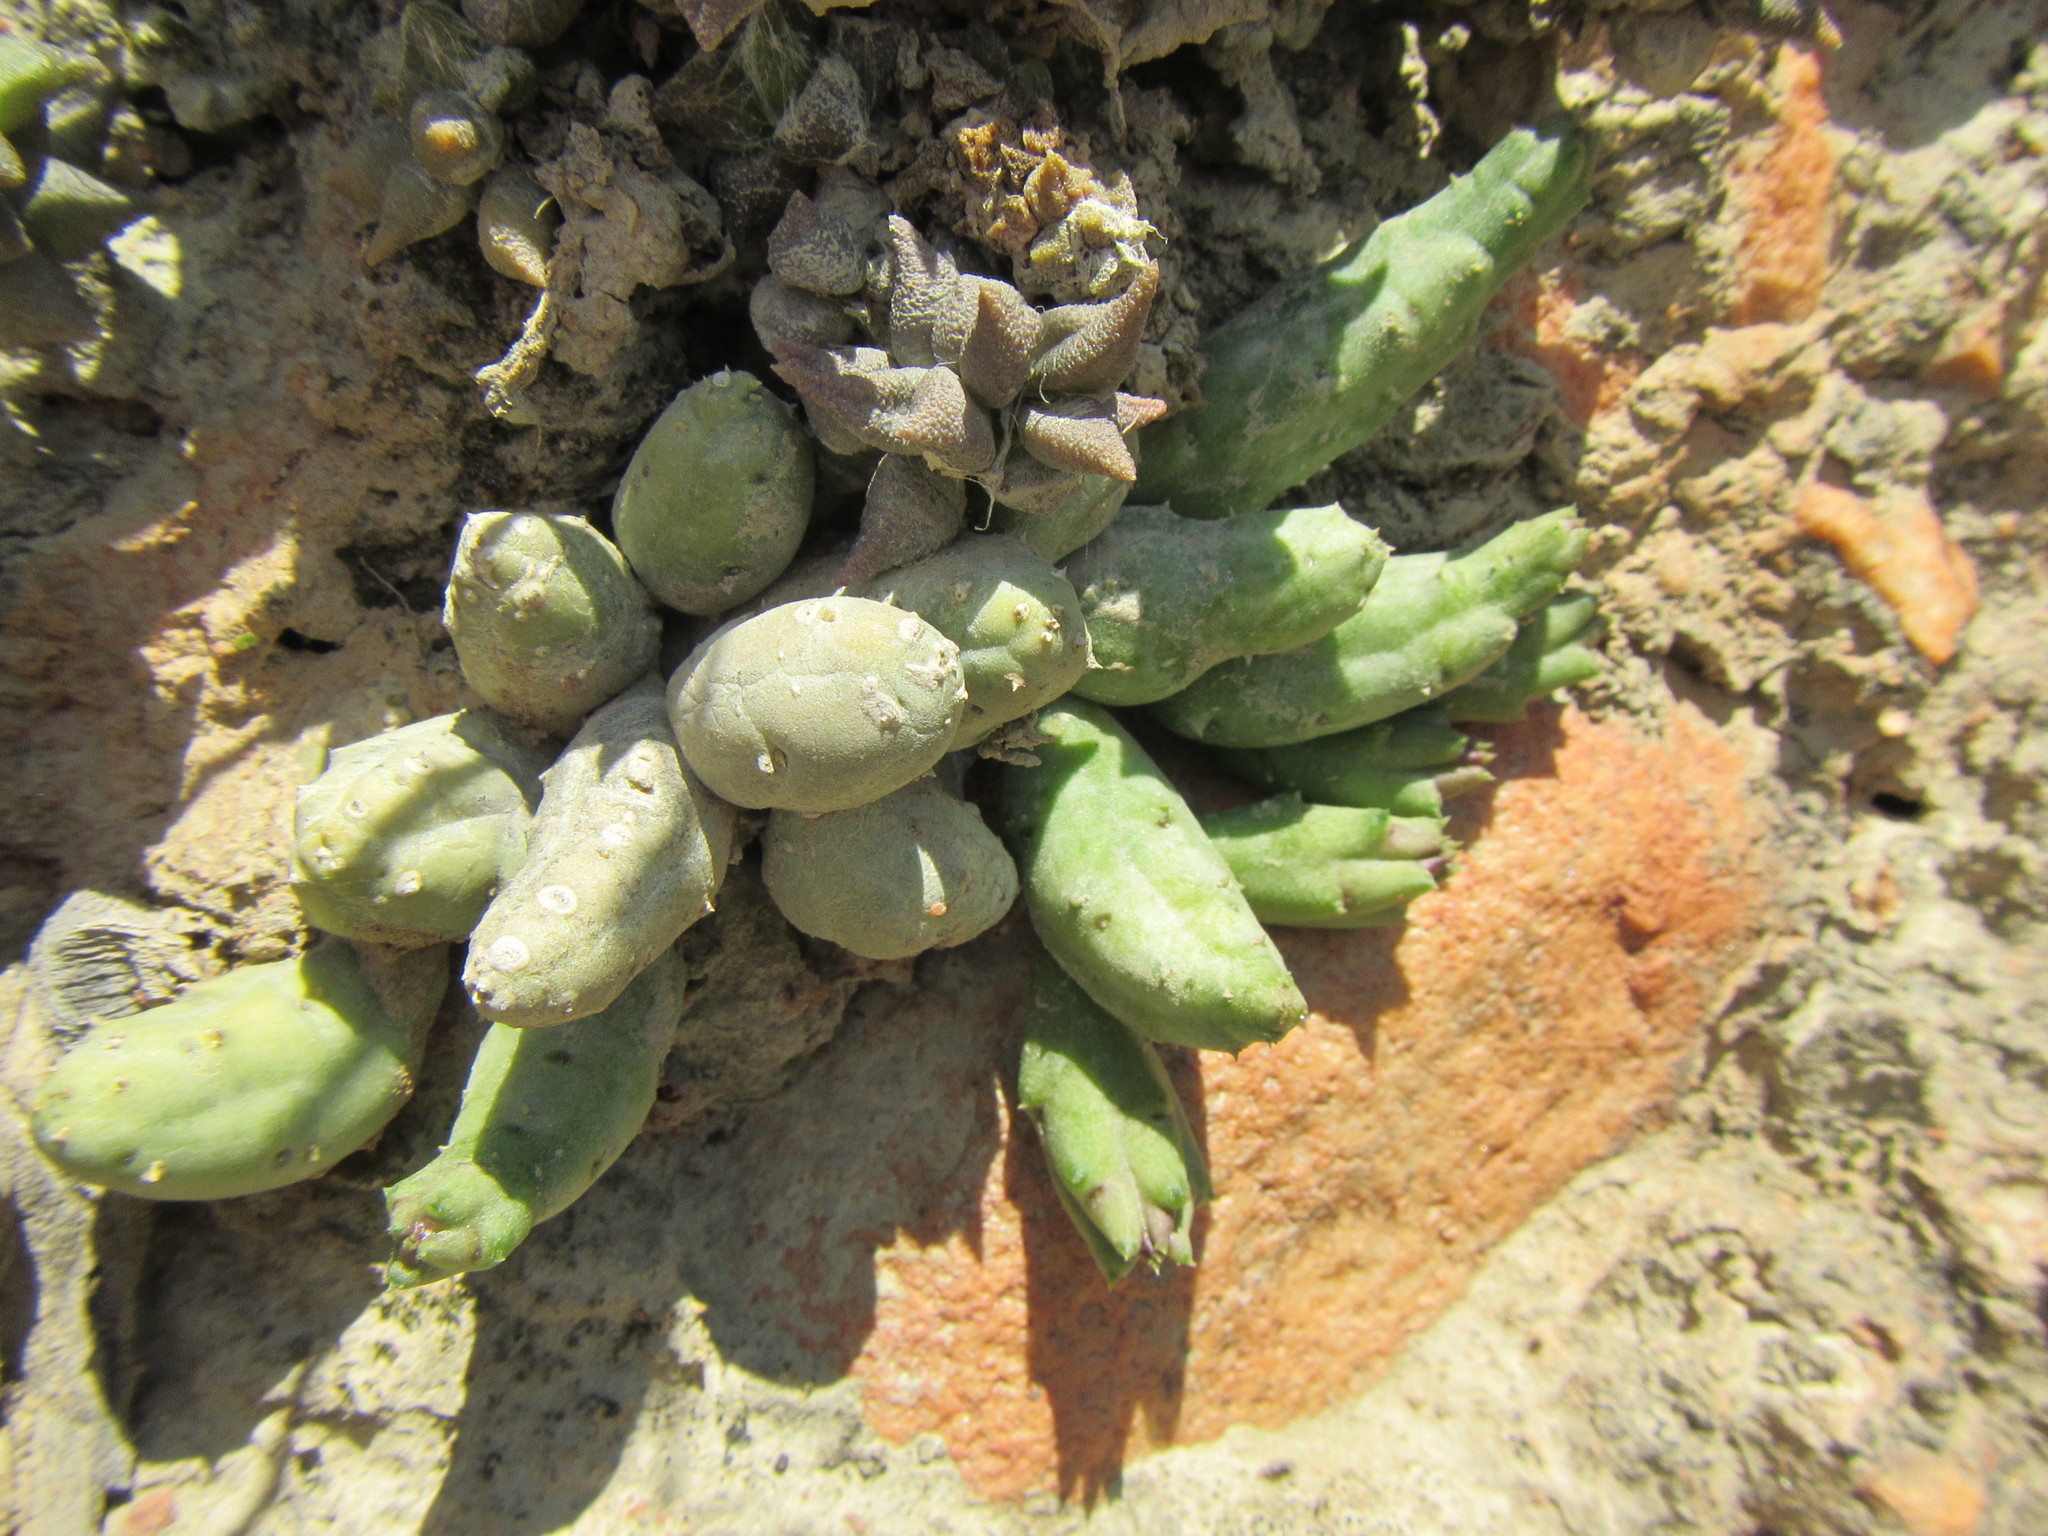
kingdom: Plantae
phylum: Tracheophyta
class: Magnoliopsida
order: Gentianales
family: Apocynaceae
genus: Ceropegia
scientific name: Ceropegia geminata
